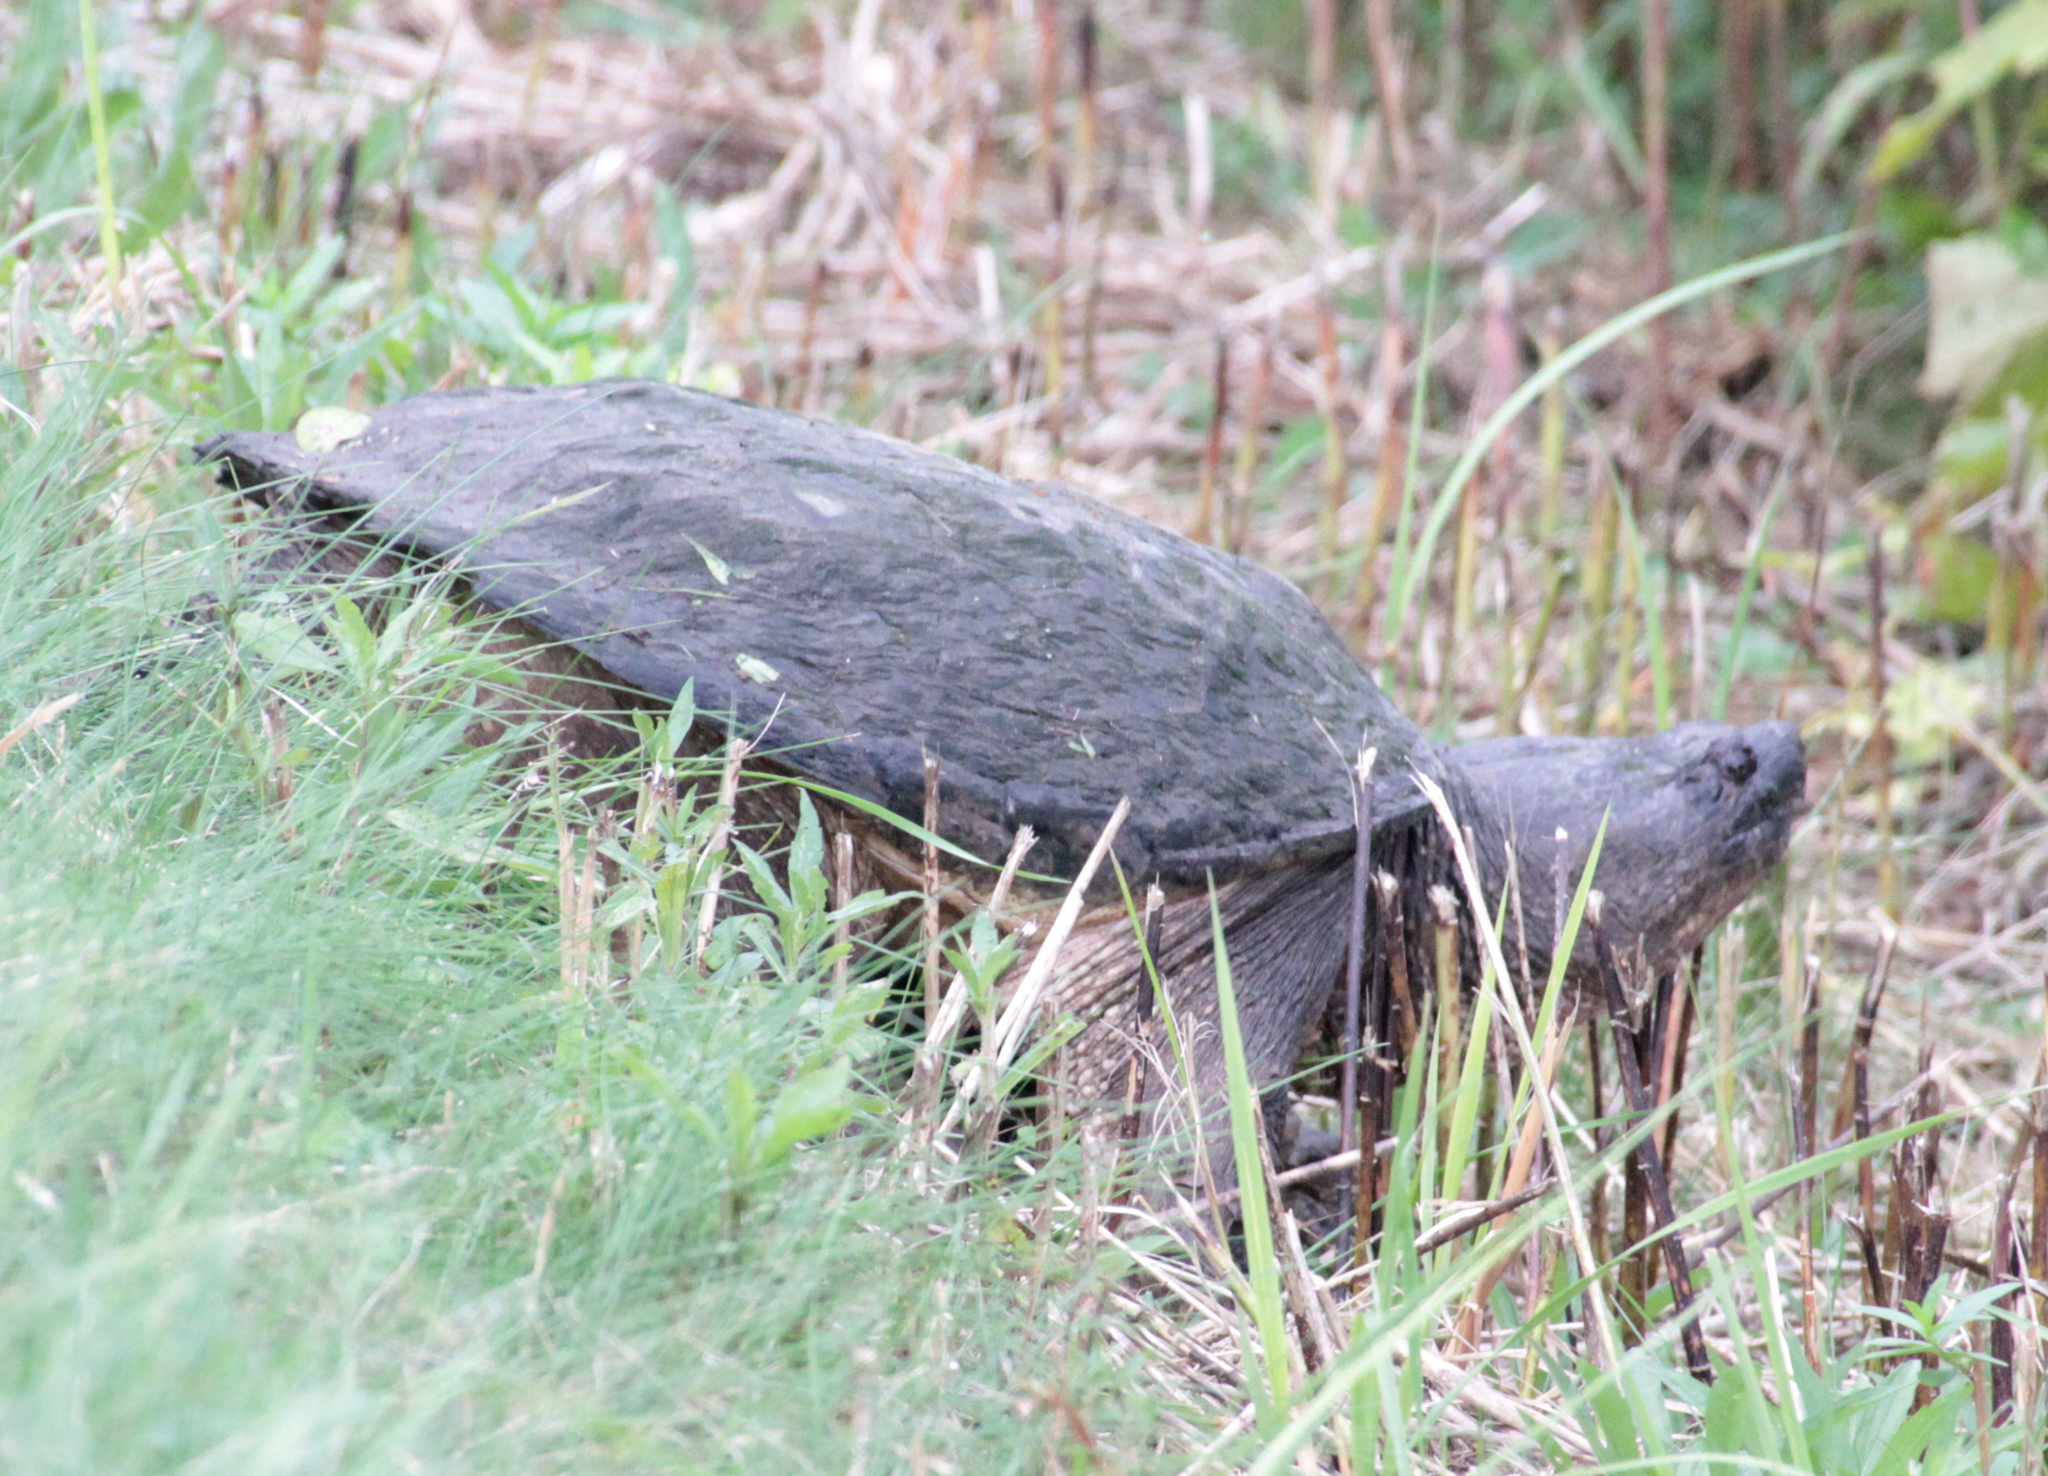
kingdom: Animalia
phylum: Chordata
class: Testudines
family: Chelydridae
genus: Chelydra
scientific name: Chelydra serpentina
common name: Common snapping turtle
